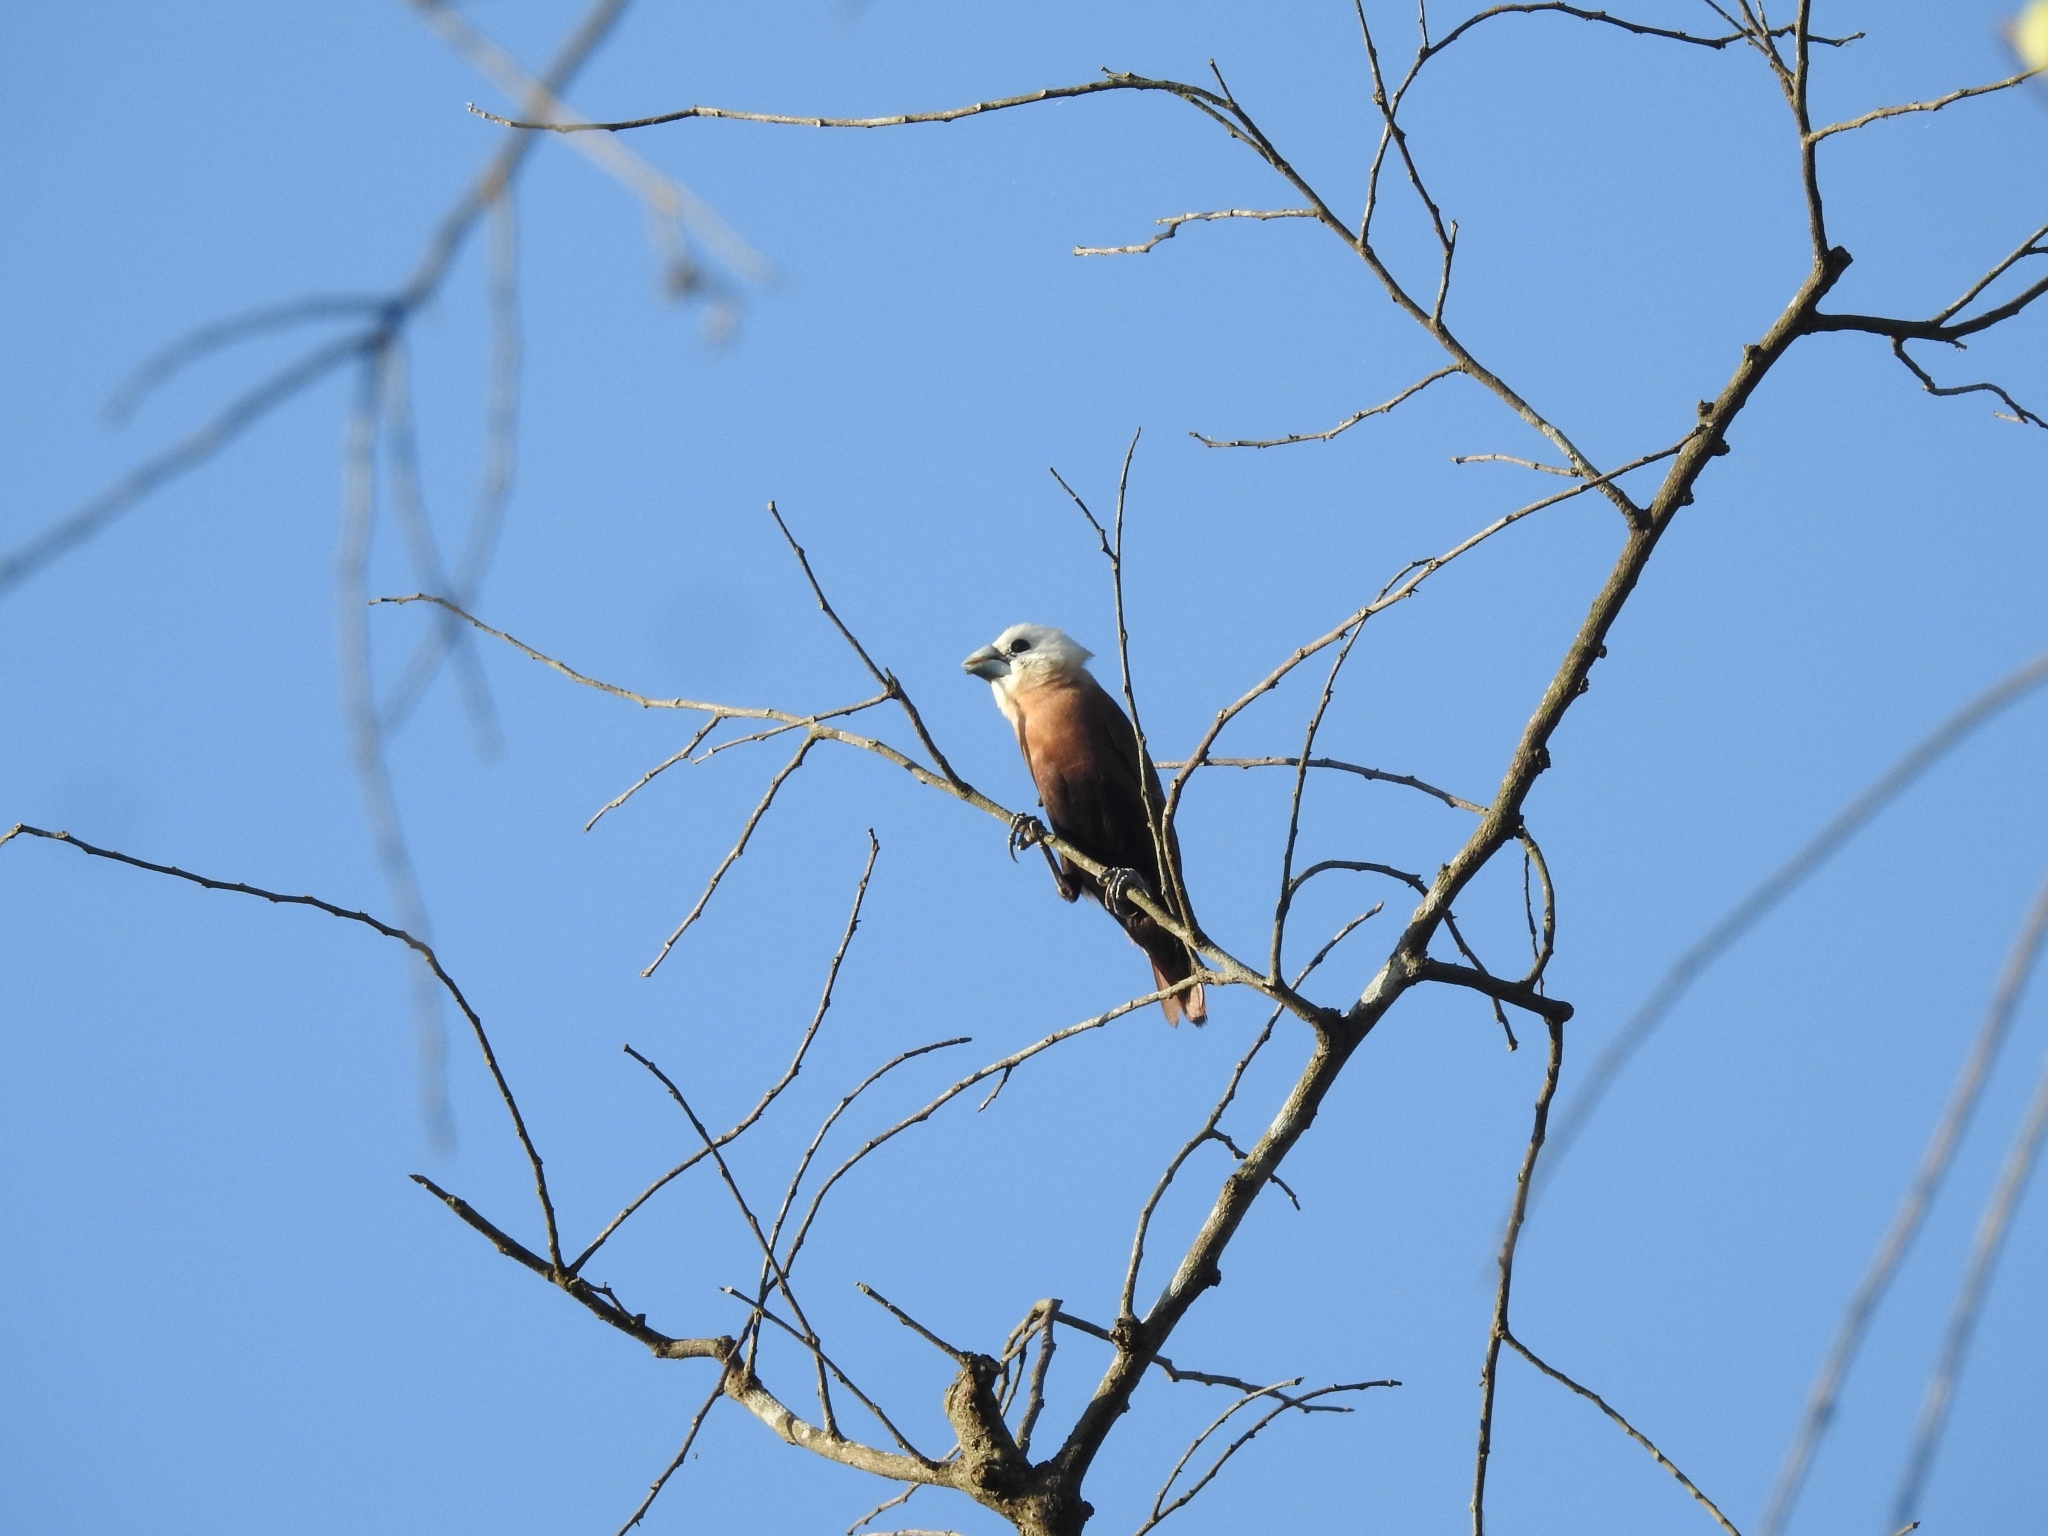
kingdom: Animalia
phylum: Chordata
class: Aves
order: Passeriformes
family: Estrildidae
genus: Lonchura
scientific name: Lonchura maja
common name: White-headed munia
